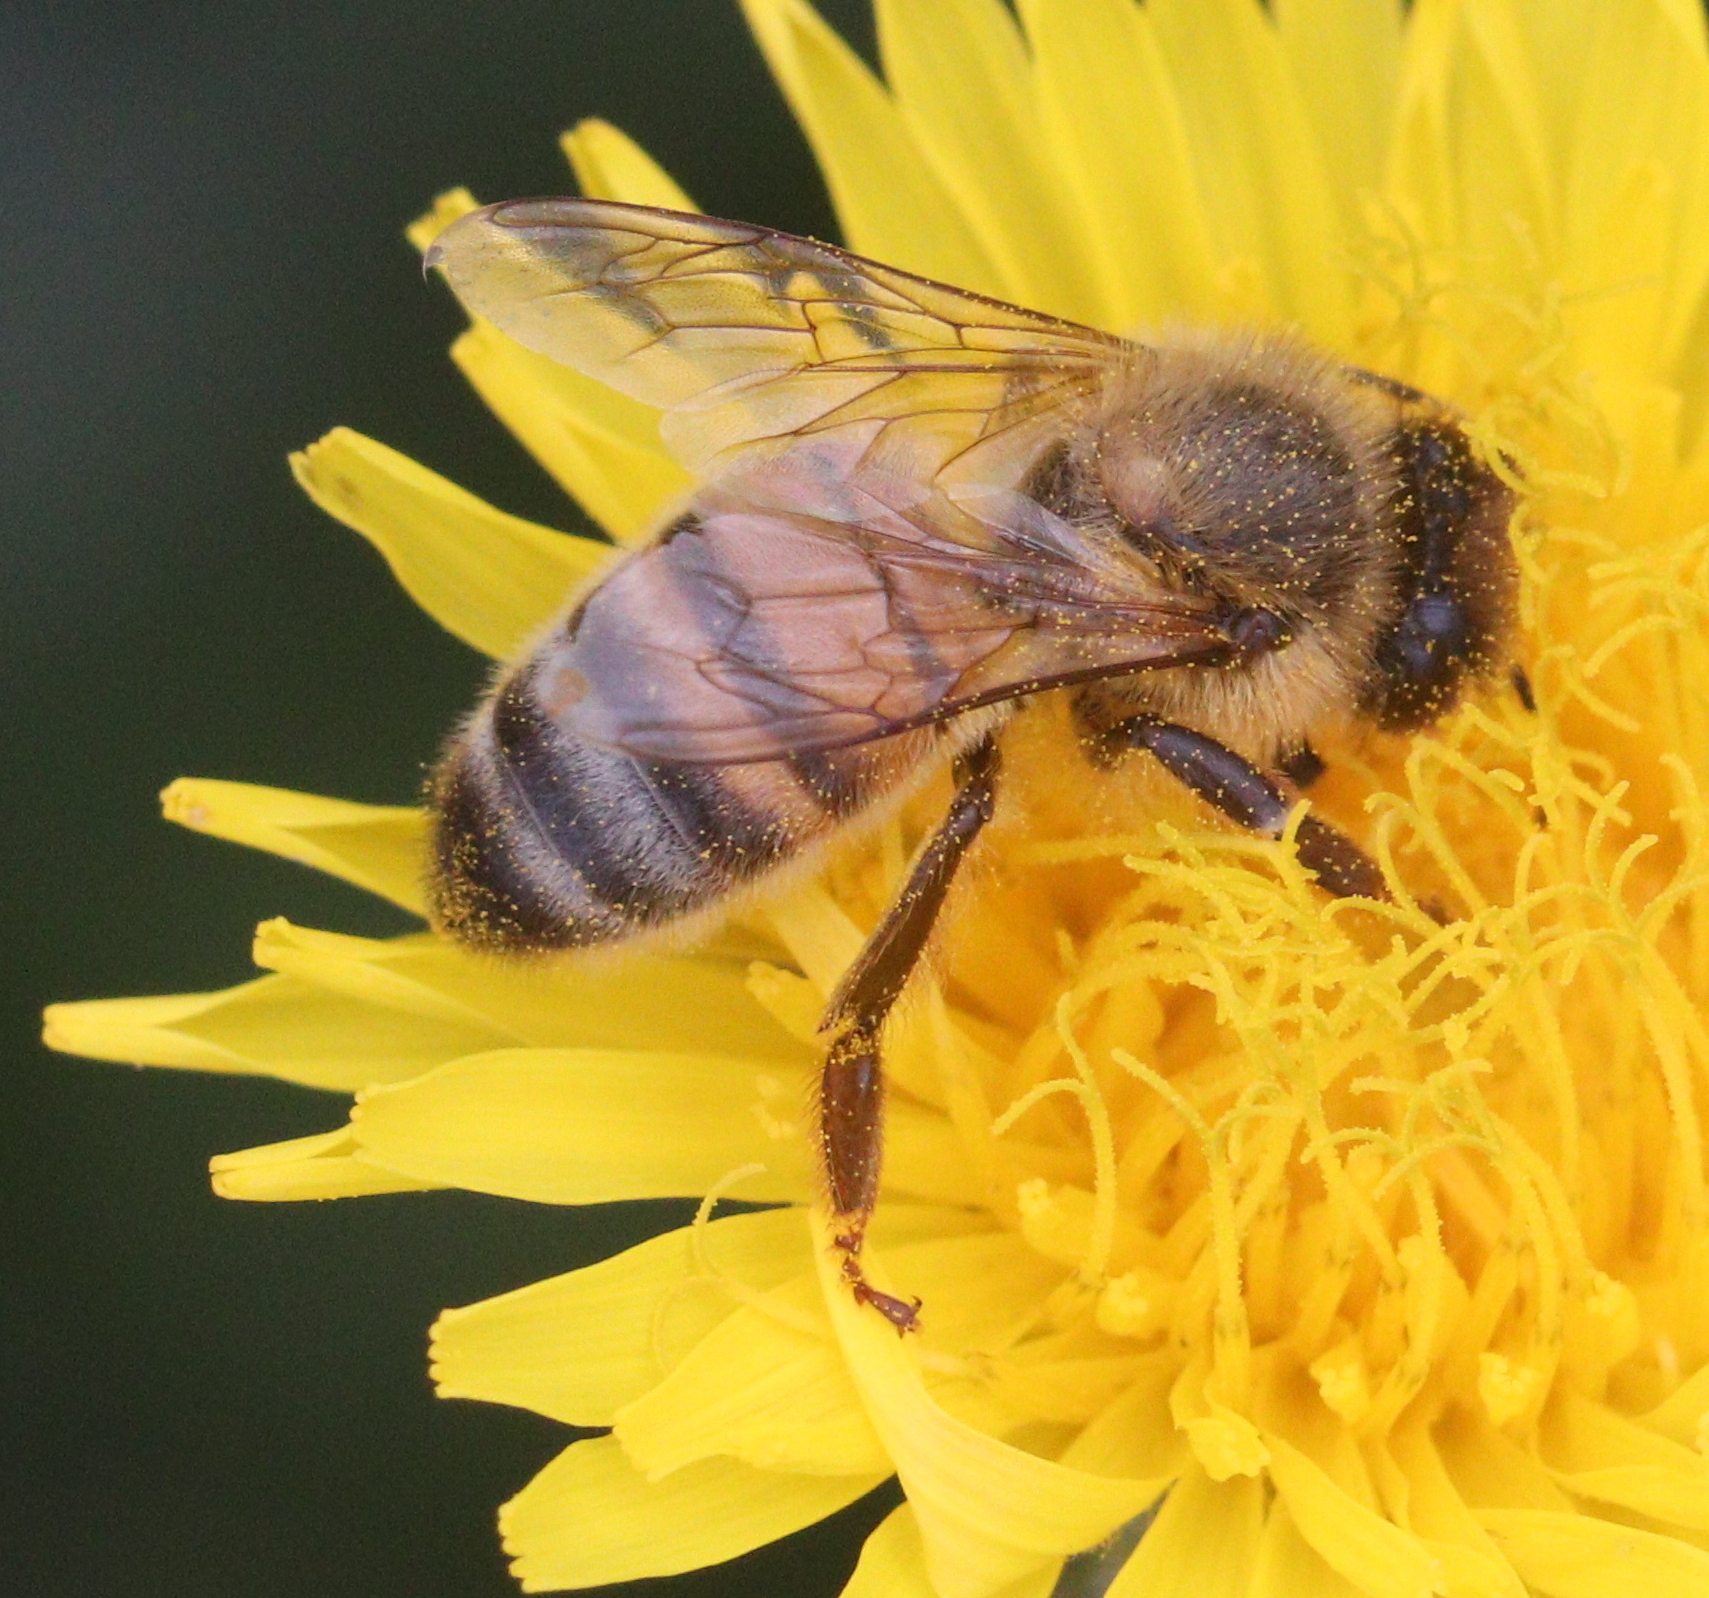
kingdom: Animalia
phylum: Arthropoda
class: Insecta
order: Hymenoptera
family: Apidae
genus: Apis
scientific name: Apis mellifera
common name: Honey bee
